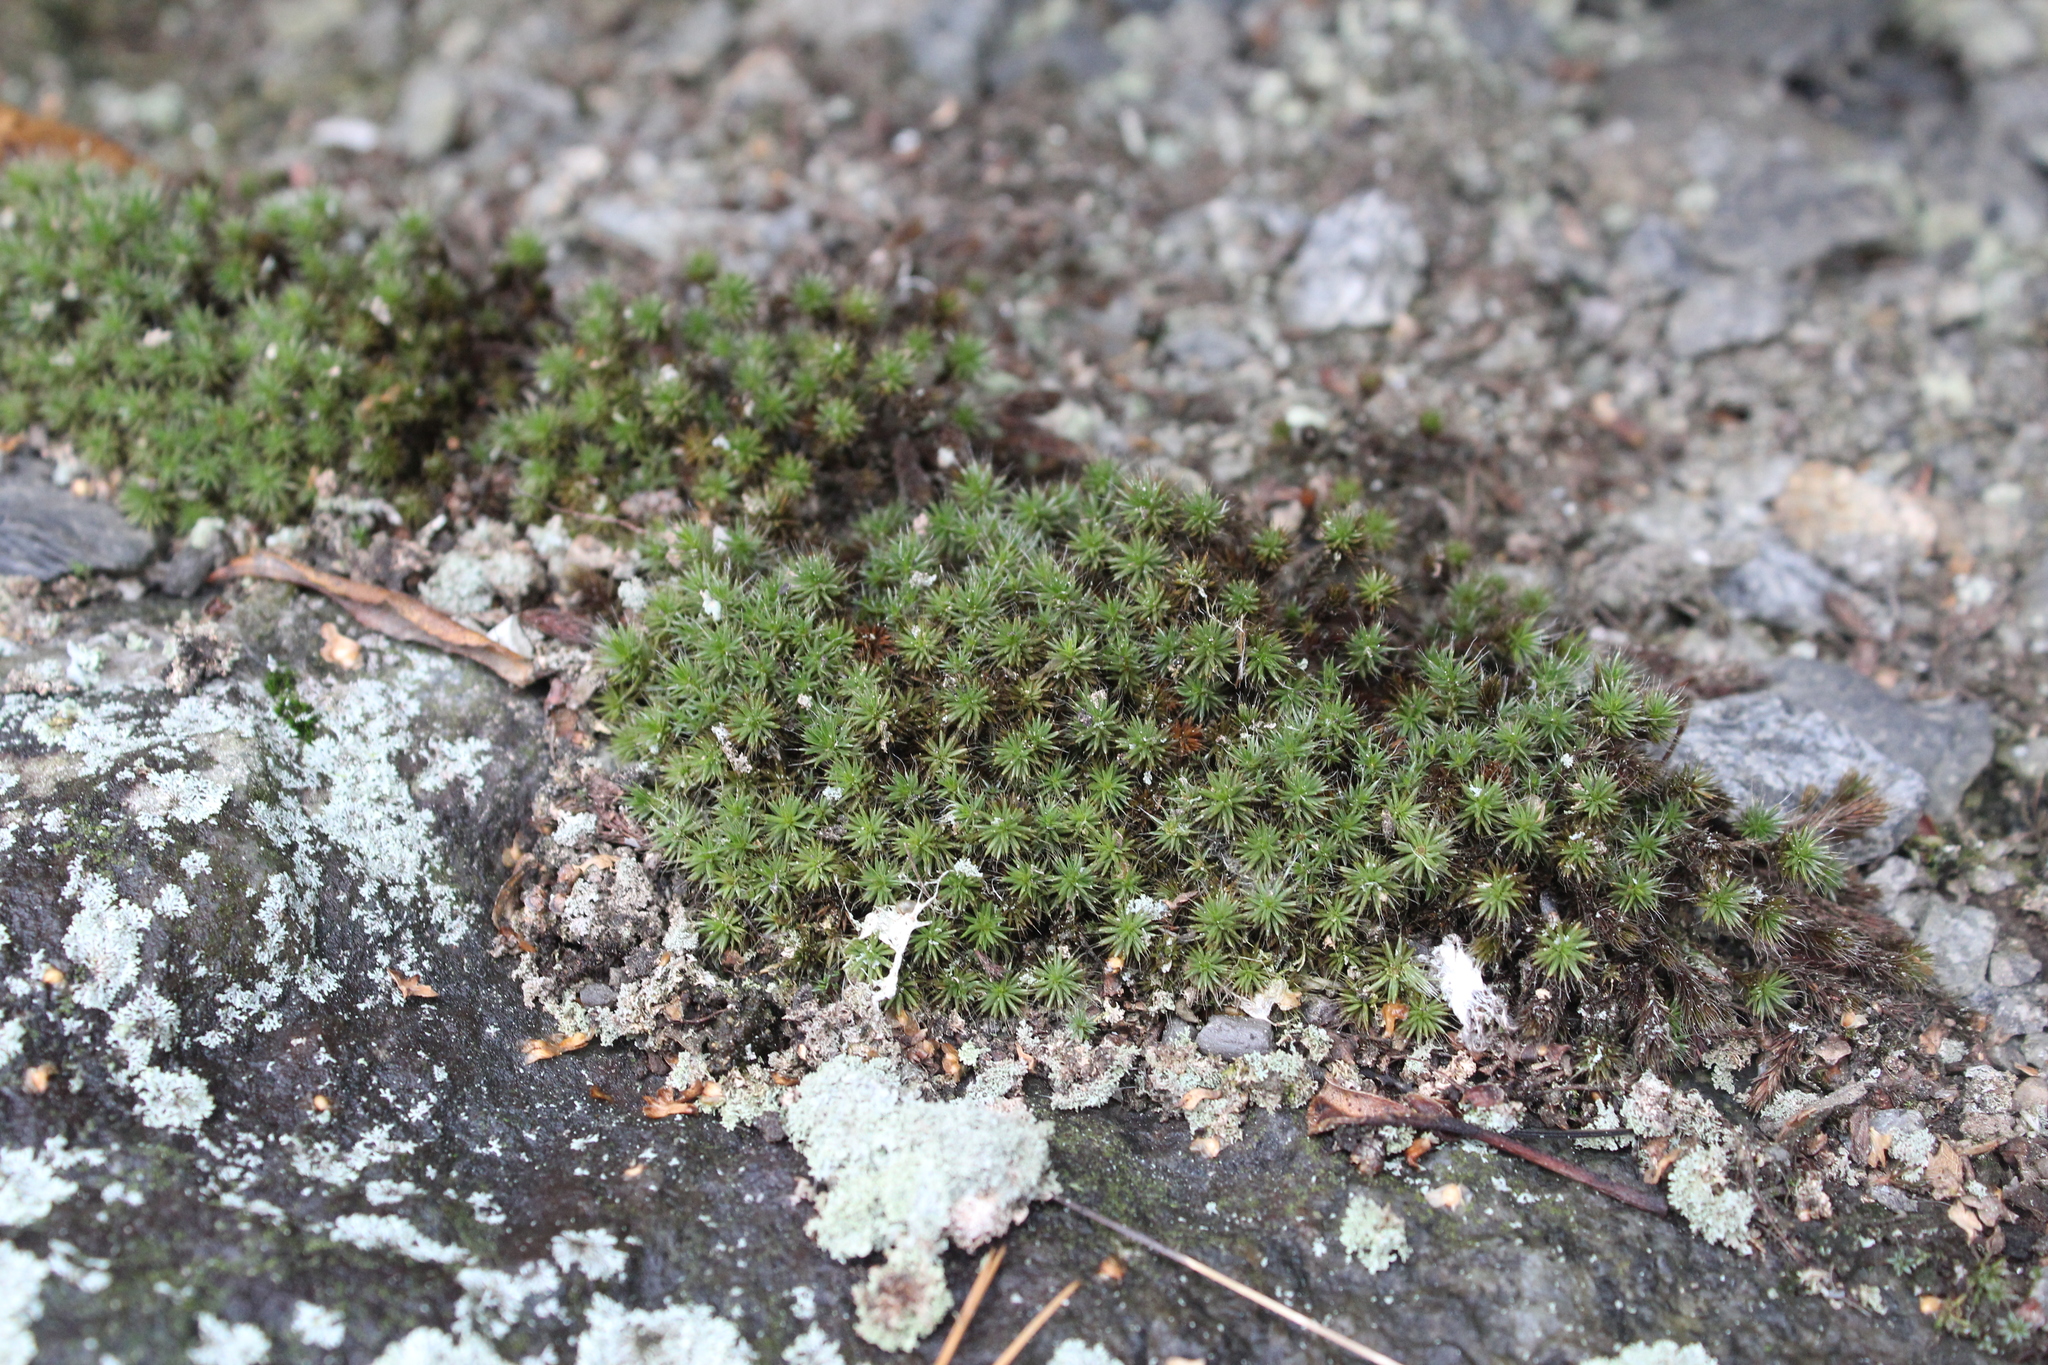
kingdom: Plantae
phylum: Bryophyta
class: Polytrichopsida
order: Polytrichales
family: Polytrichaceae
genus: Polytrichum
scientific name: Polytrichum piliferum
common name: Bristly haircap
